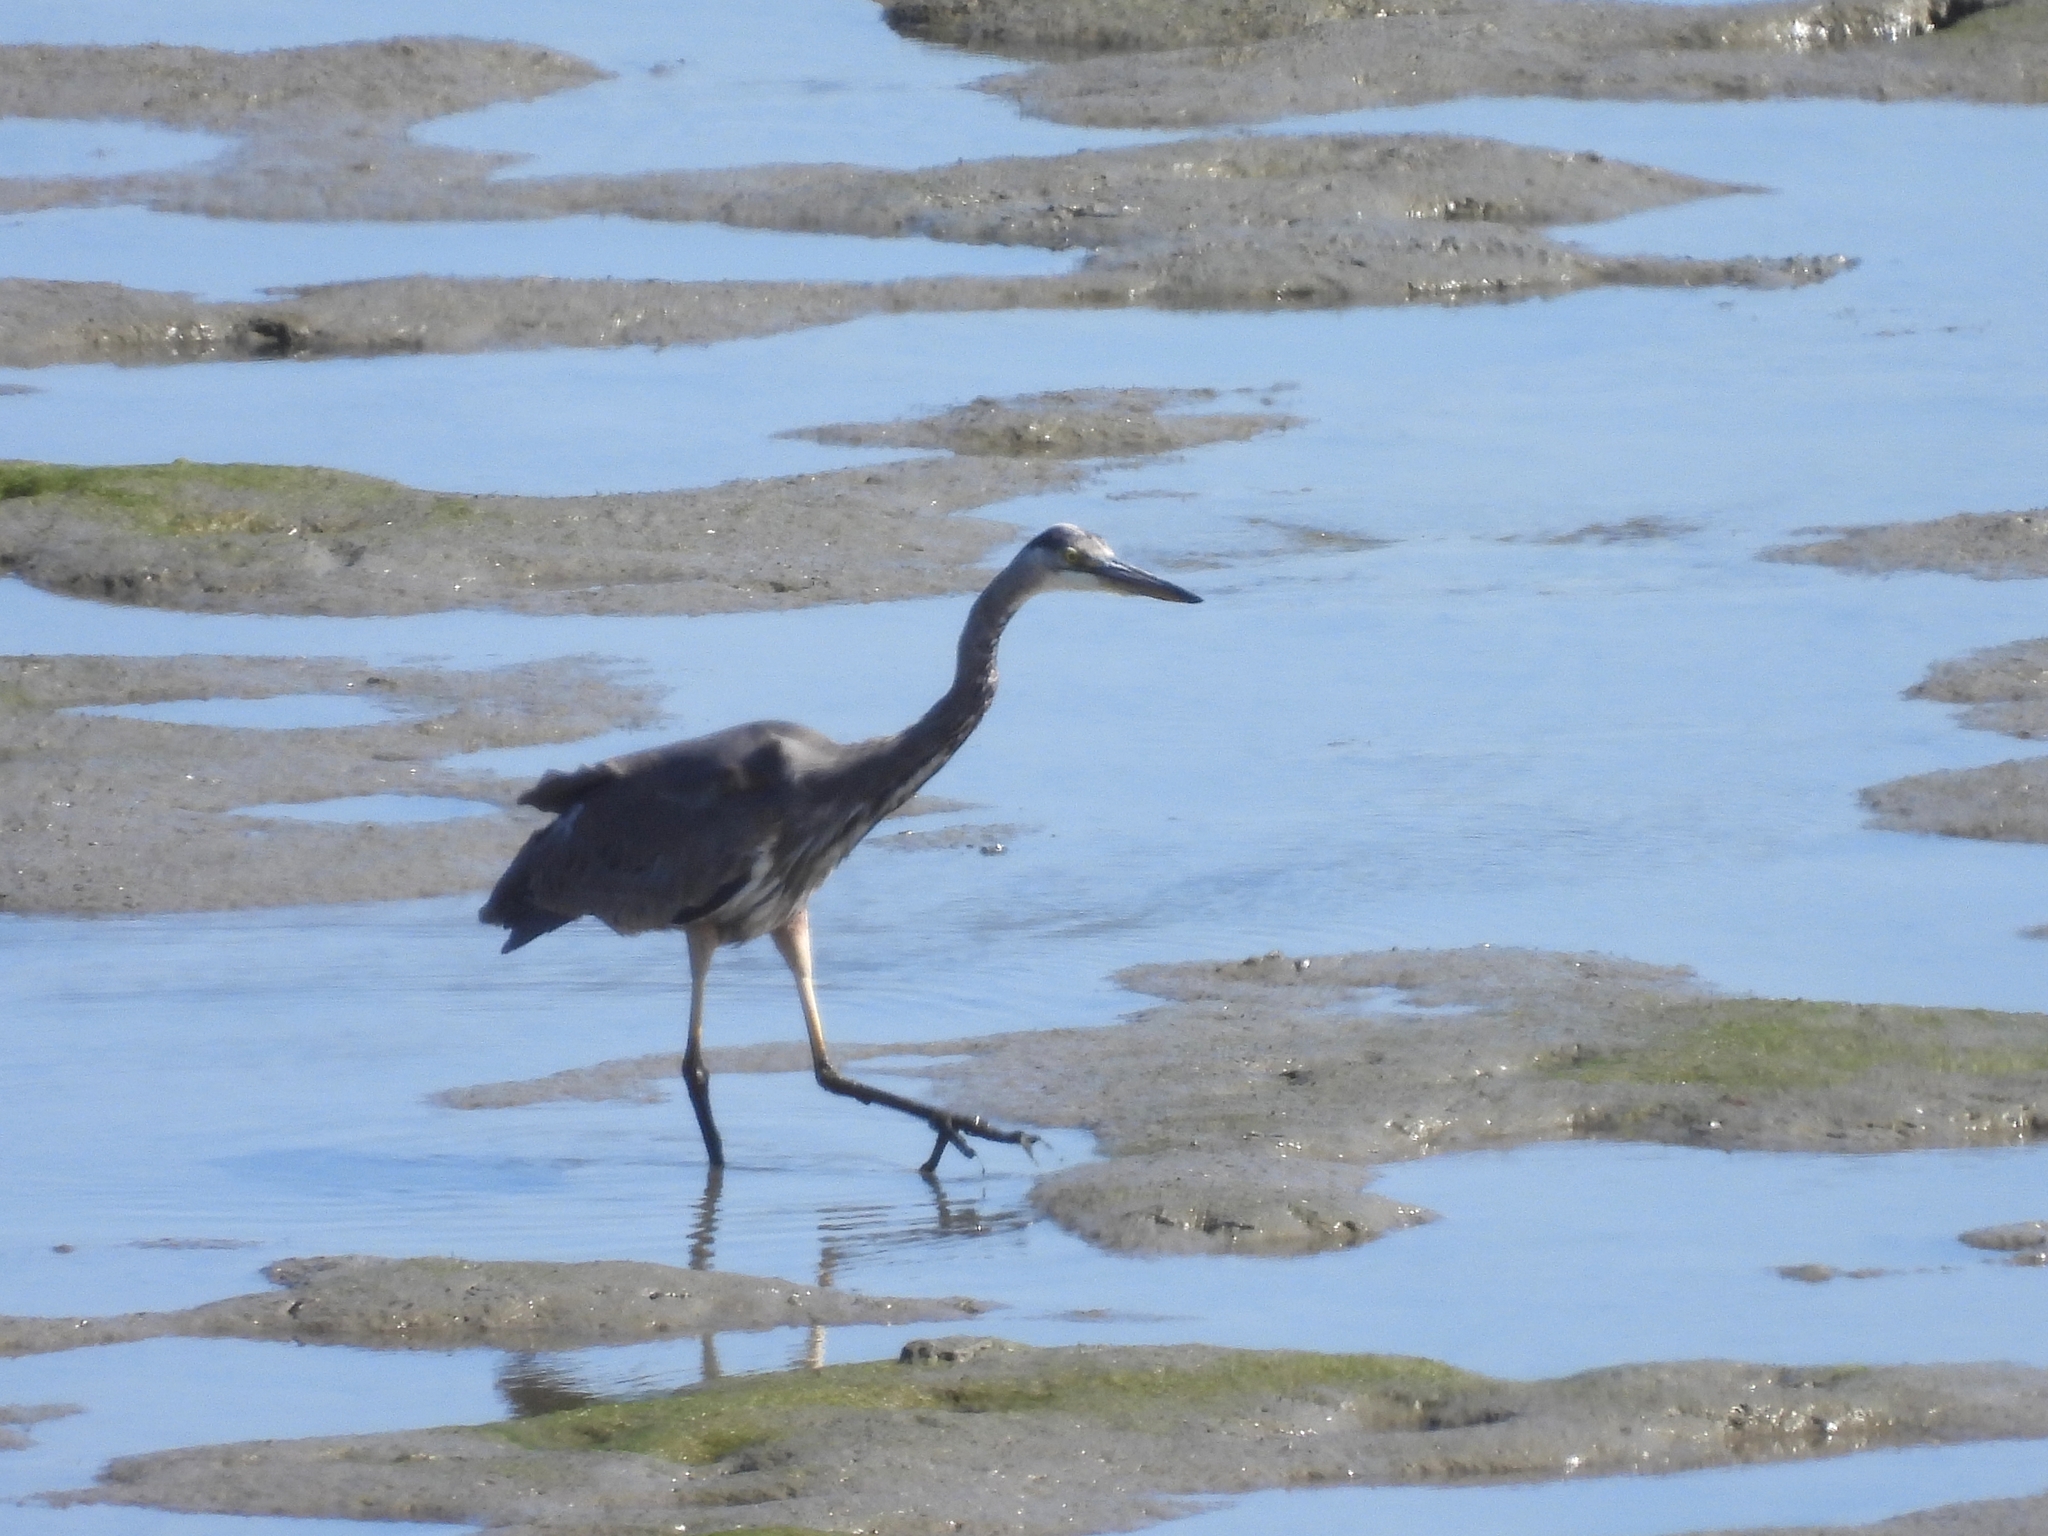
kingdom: Animalia
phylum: Chordata
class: Aves
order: Pelecaniformes
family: Ardeidae
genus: Ardea
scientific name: Ardea herodias
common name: Great blue heron
